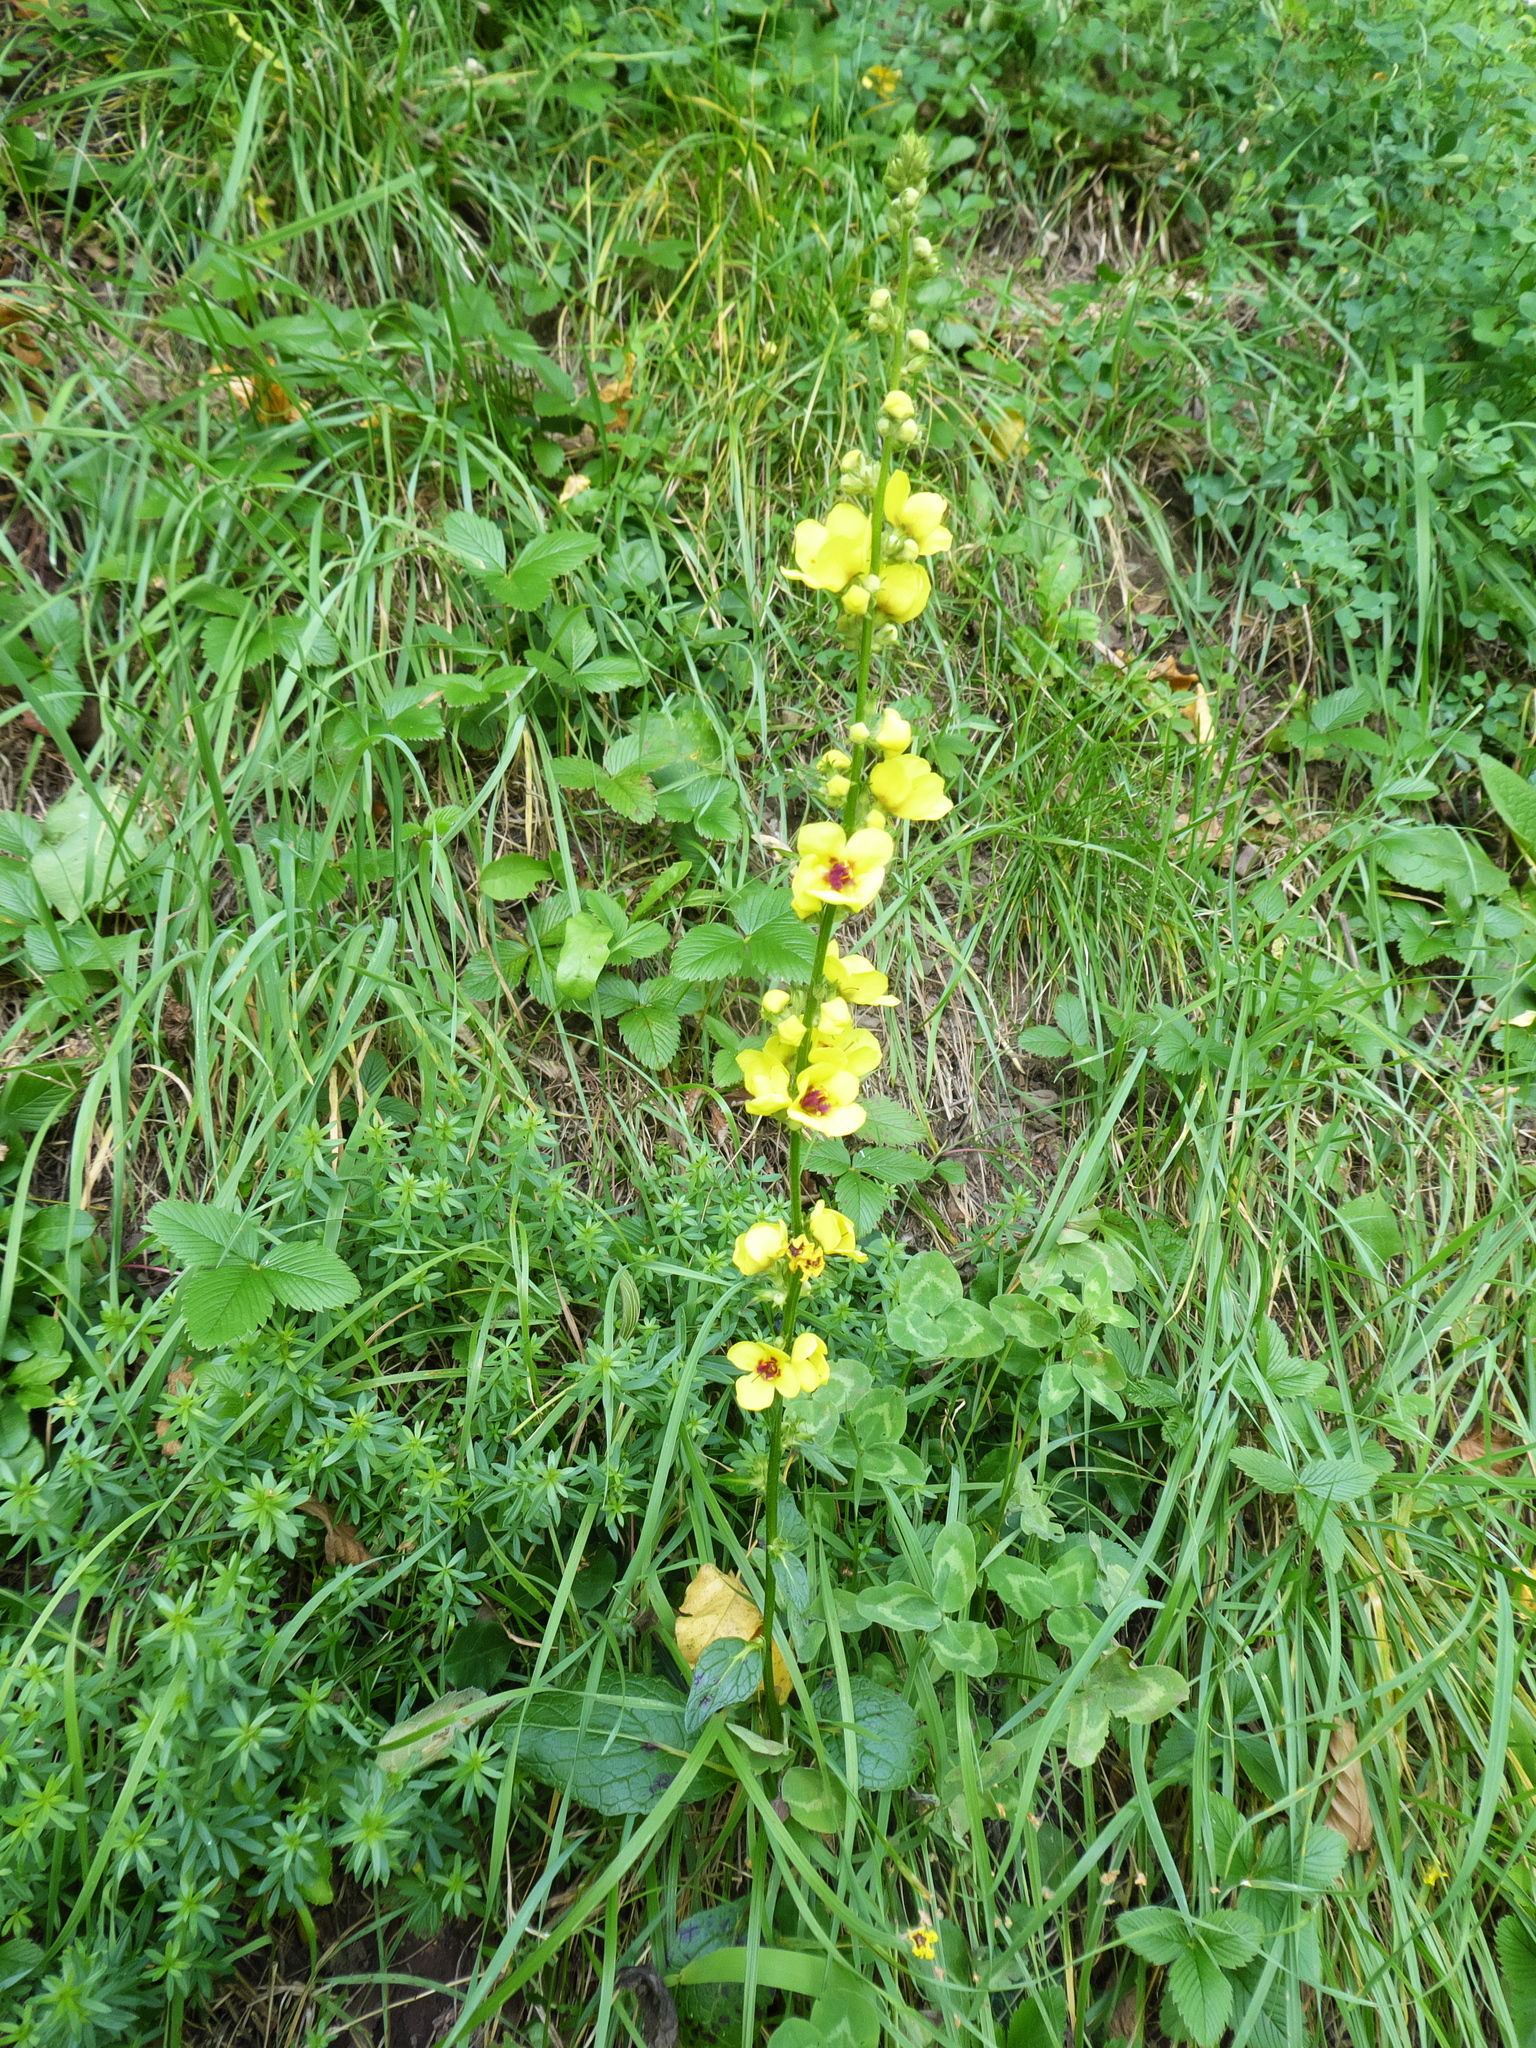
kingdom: Plantae
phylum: Tracheophyta
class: Magnoliopsida
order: Lamiales
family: Scrophulariaceae
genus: Verbascum
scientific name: Verbascum nigrum
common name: Dark mullein
